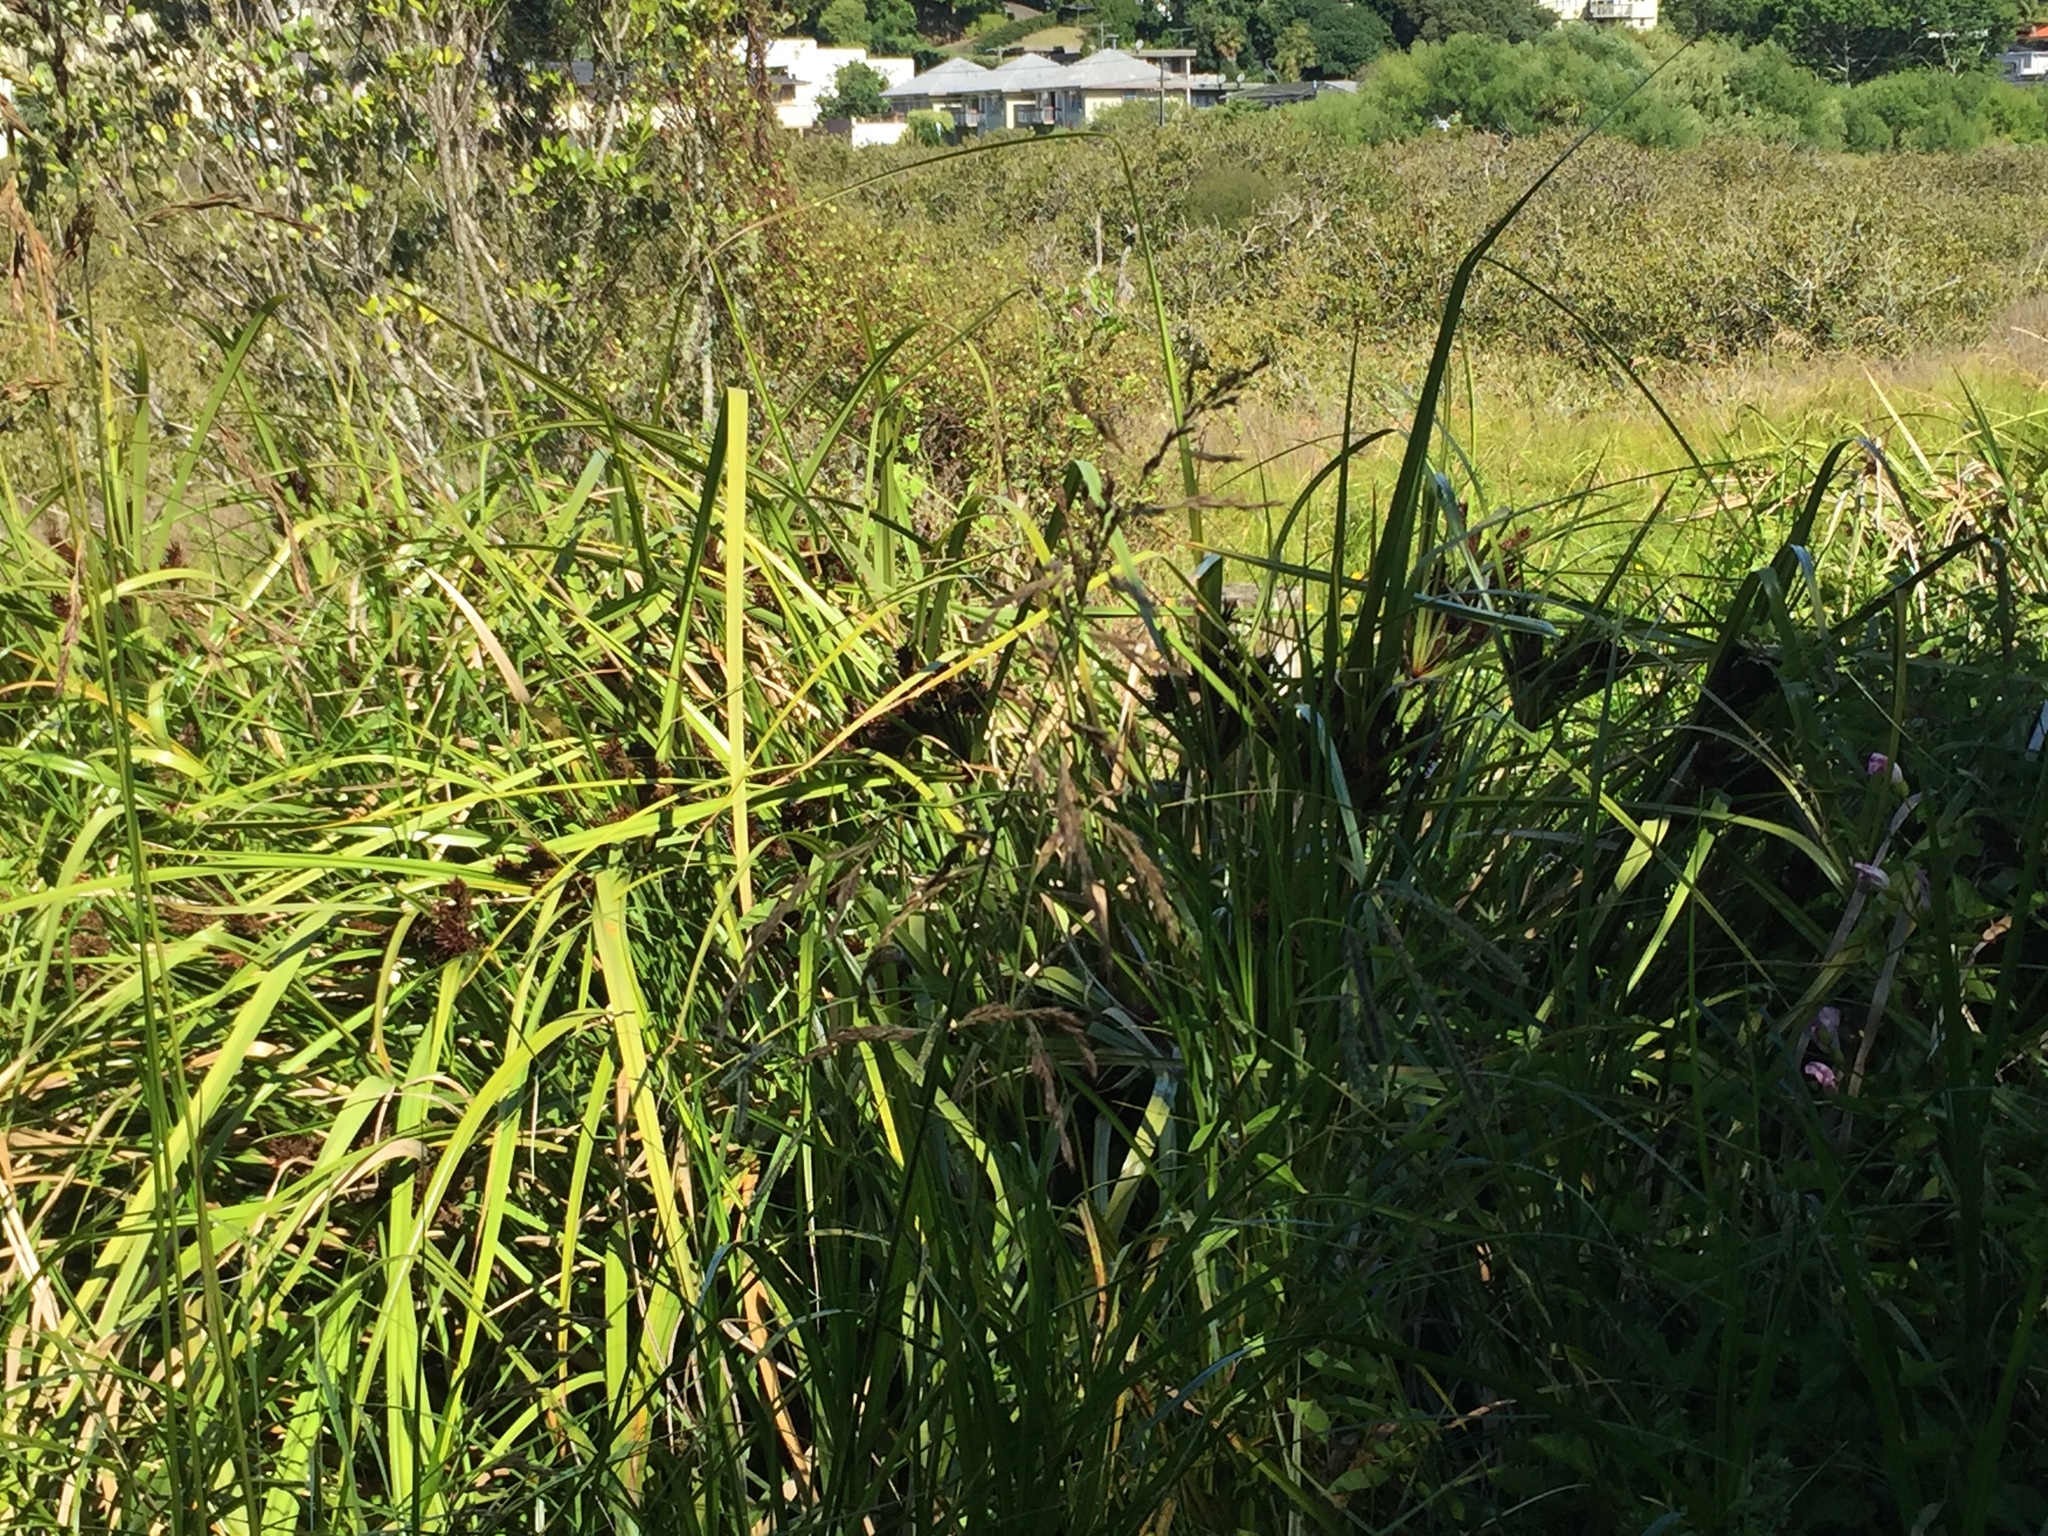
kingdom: Plantae
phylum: Tracheophyta
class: Liliopsida
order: Poales
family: Cyperaceae
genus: Cyperus
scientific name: Cyperus ustulatus
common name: Giant umbrella-sedge
